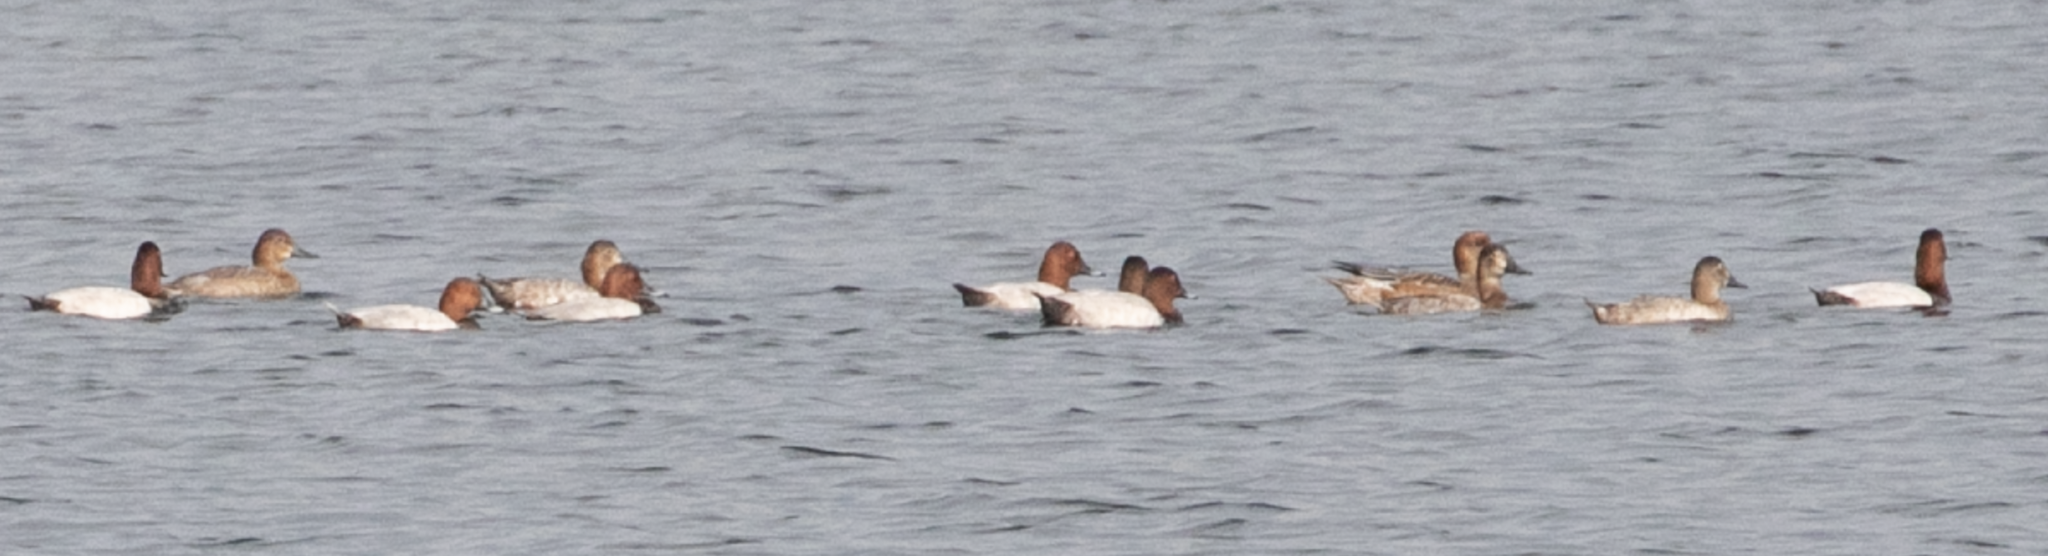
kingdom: Animalia
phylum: Chordata
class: Aves
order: Anseriformes
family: Anatidae
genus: Aythya
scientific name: Aythya ferina
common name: Common pochard
